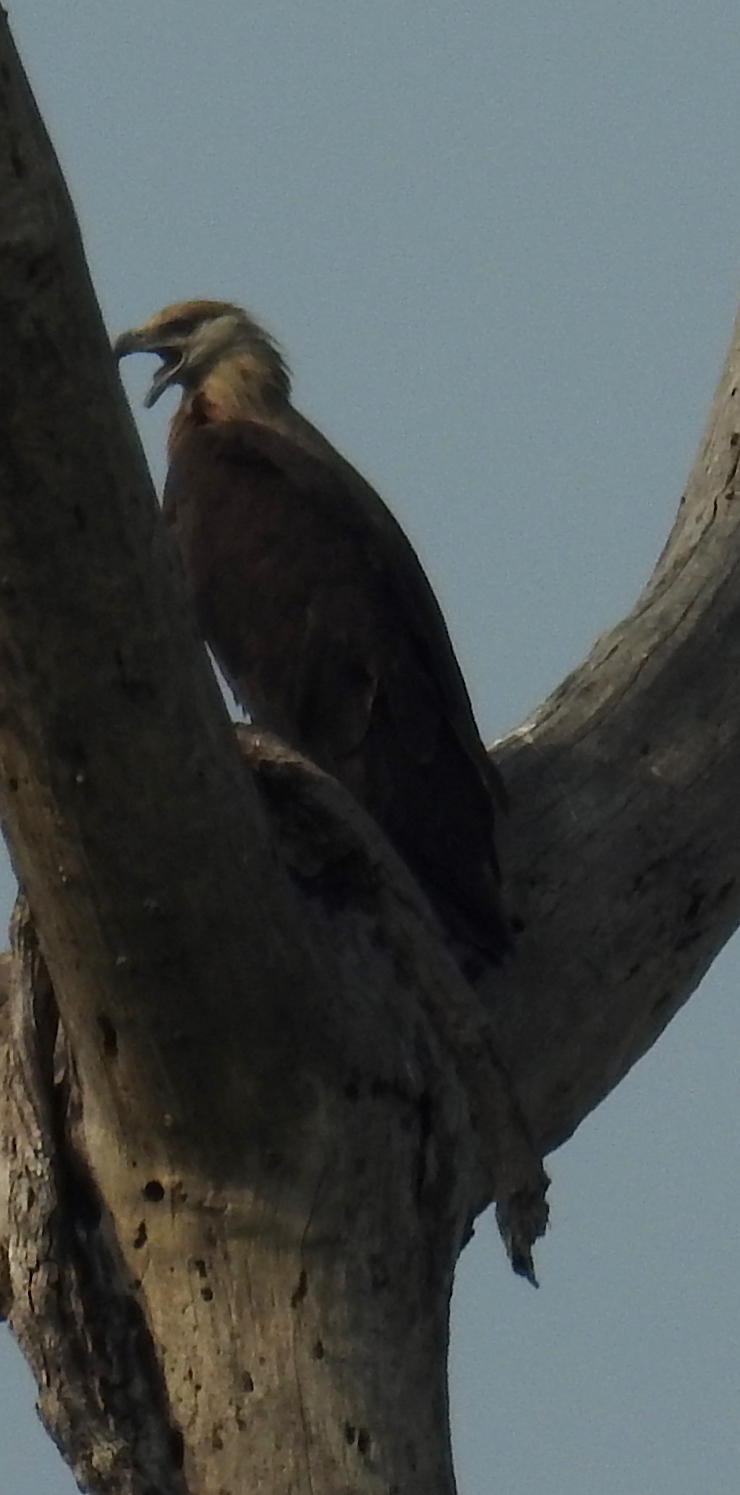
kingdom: Animalia
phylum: Chordata
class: Aves
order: Accipitriformes
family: Accipitridae
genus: Icthyophaga
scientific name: Icthyophaga ichthyaetus
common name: Grey-headed fish eagle
